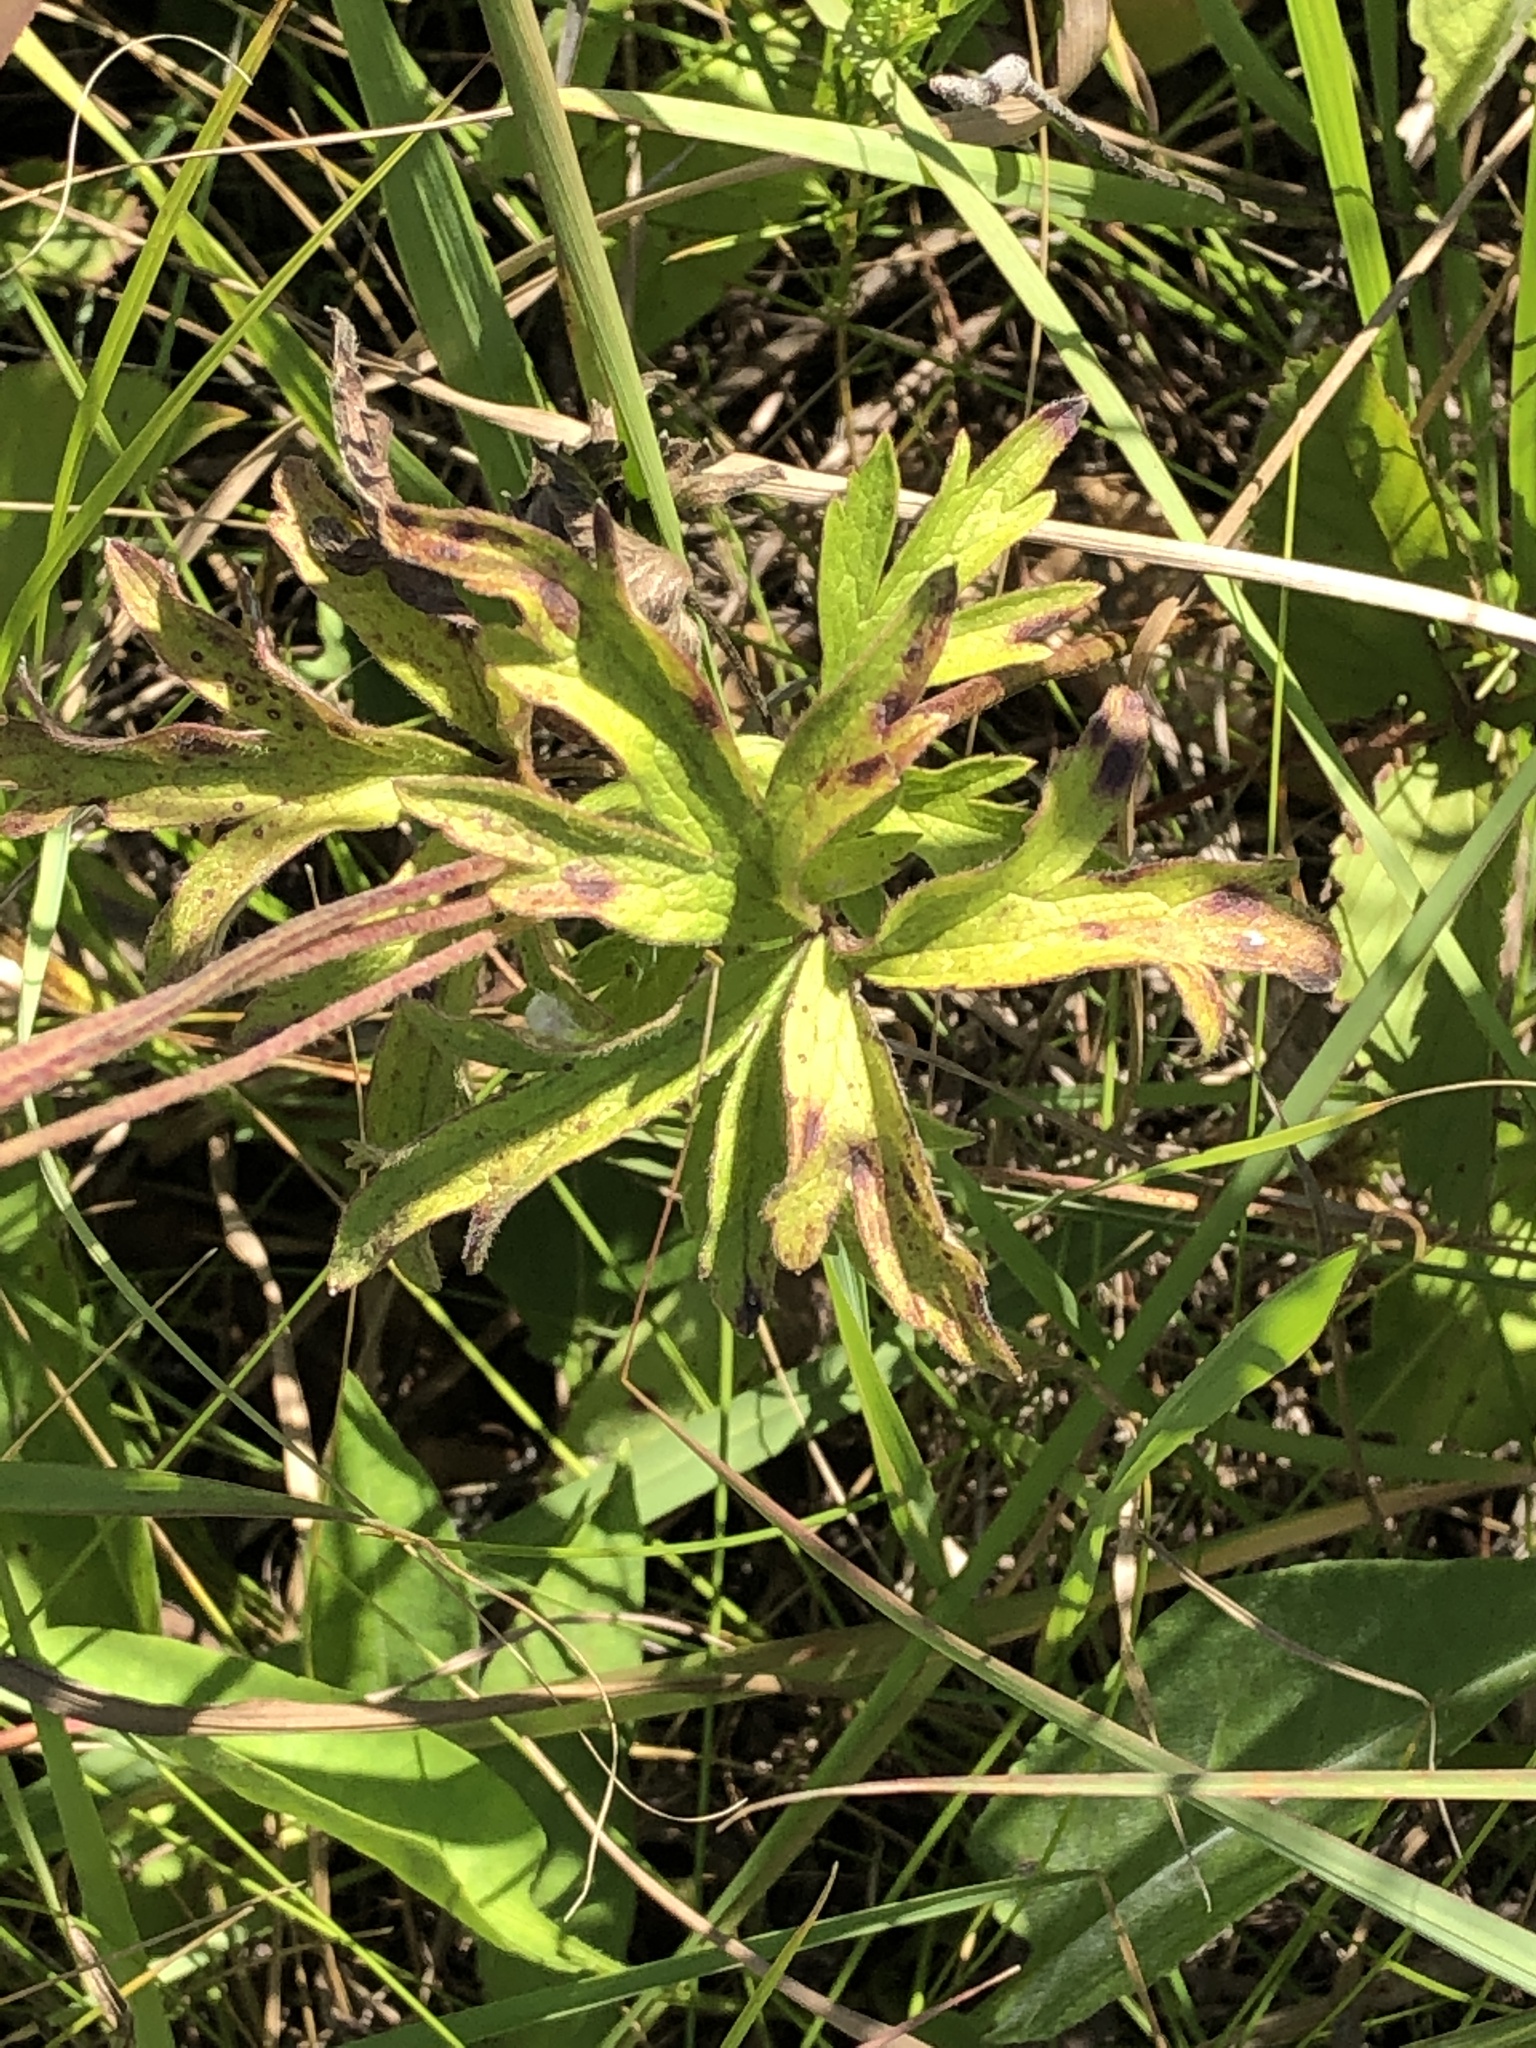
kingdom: Plantae
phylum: Tracheophyta
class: Magnoliopsida
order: Ranunculales
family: Ranunculaceae
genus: Anemone
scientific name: Anemone cylindrica
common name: Candle anemone
